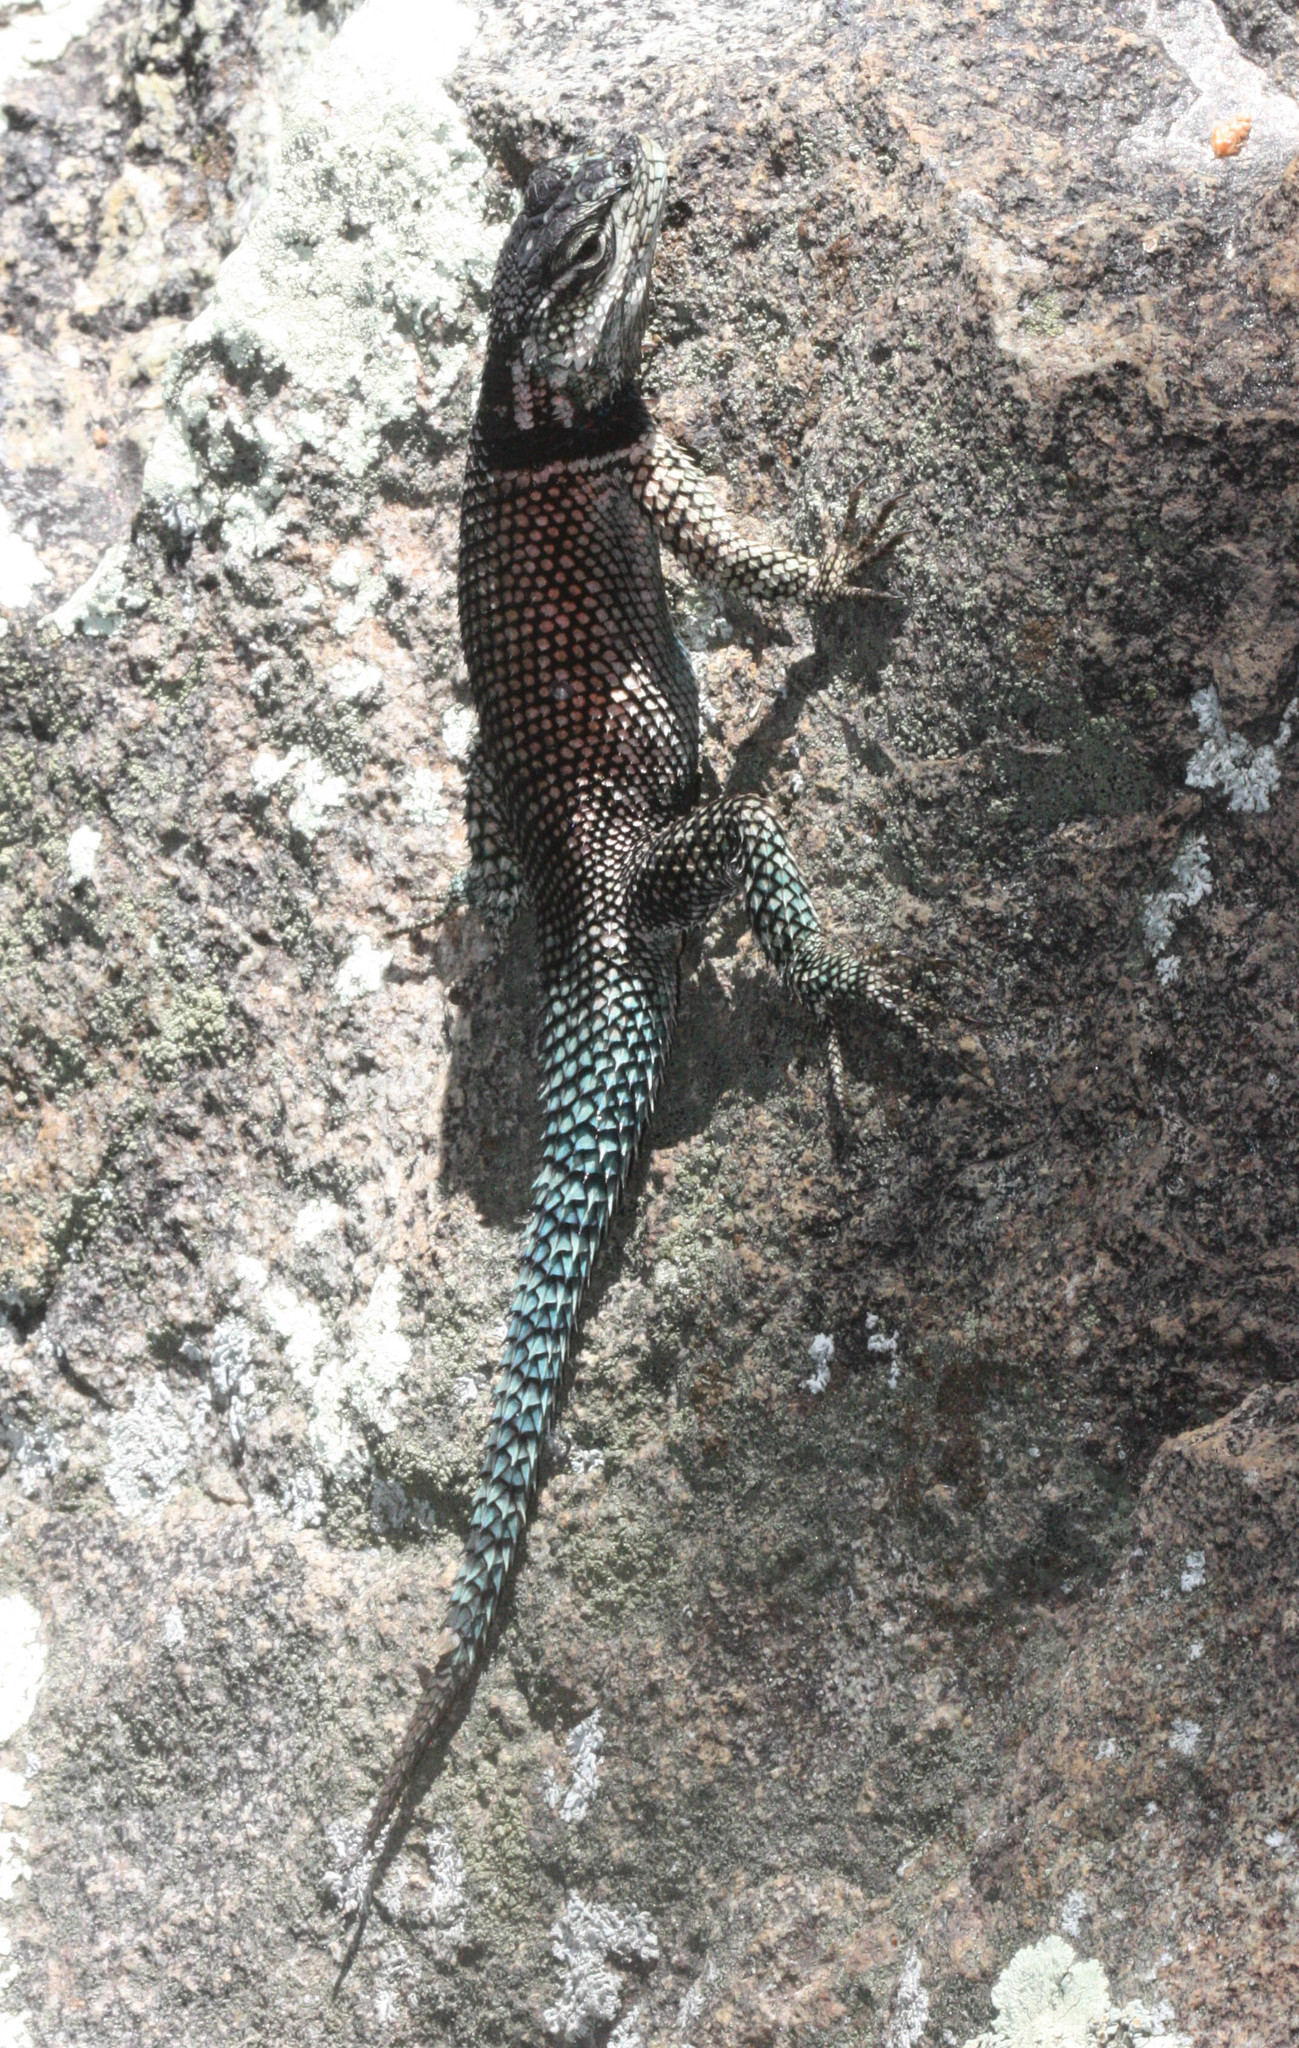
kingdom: Animalia
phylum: Chordata
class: Squamata
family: Phrynosomatidae
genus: Sceloporus
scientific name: Sceloporus jarrovii
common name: Yarrow's spiny lizard
